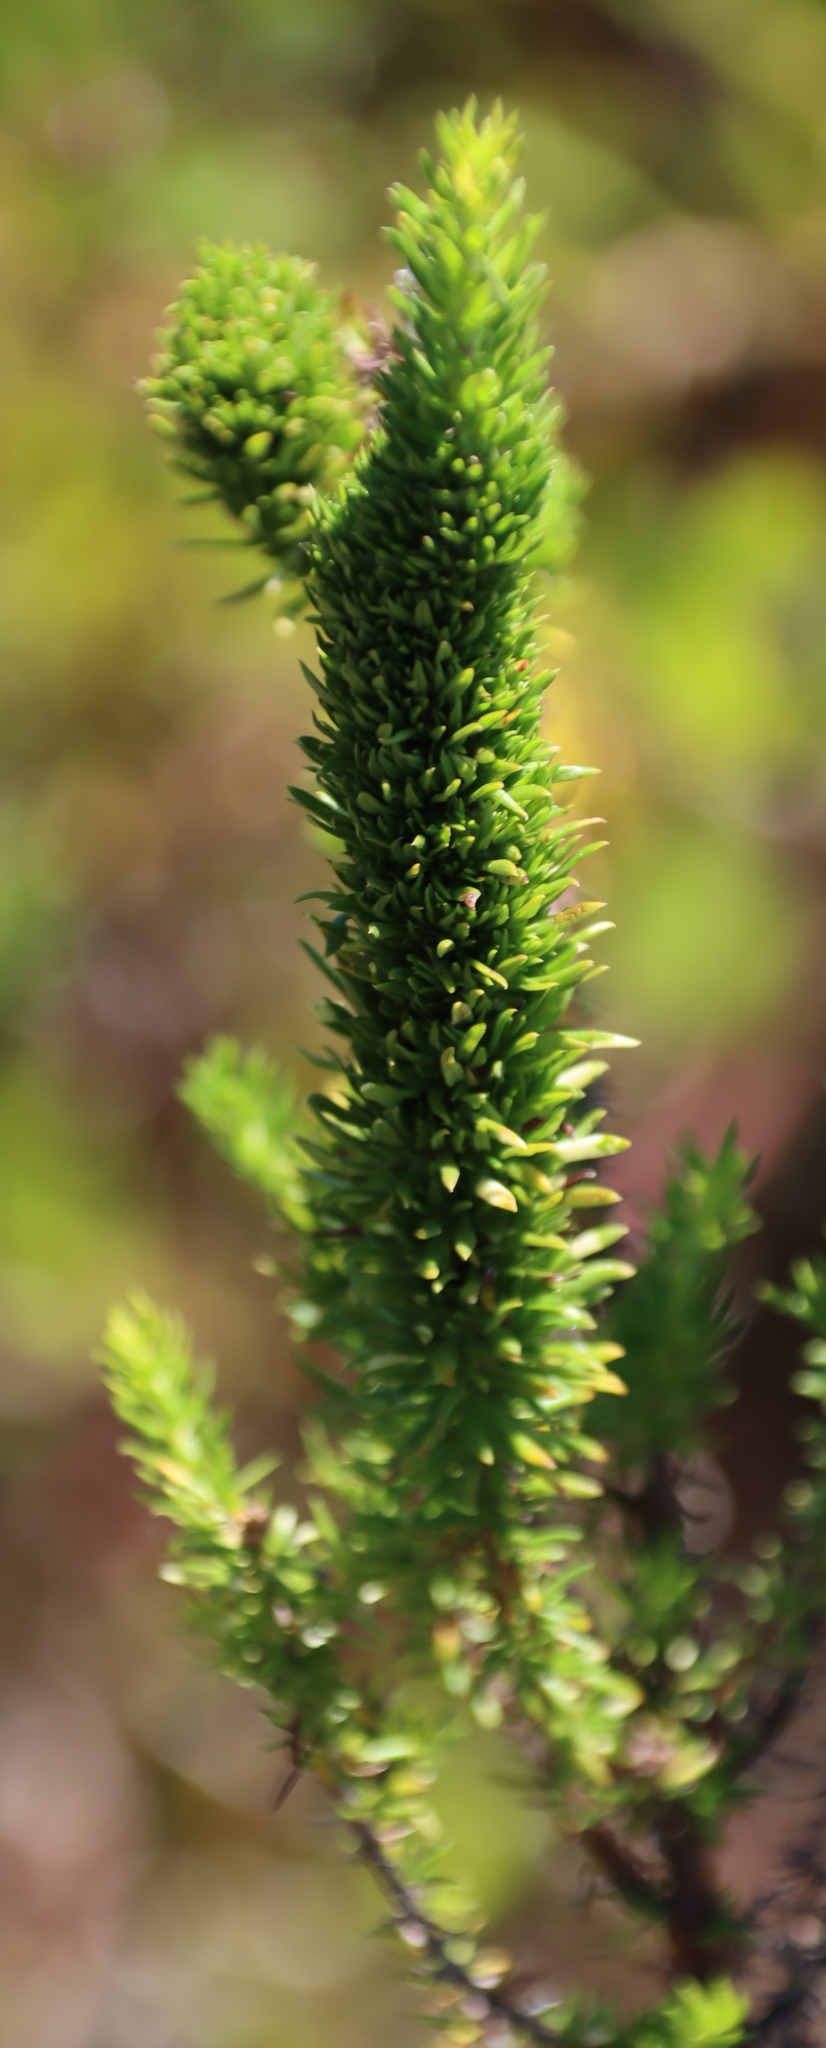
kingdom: Plantae
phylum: Tracheophyta
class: Magnoliopsida
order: Gentianales
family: Rubiaceae
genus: Anthospermum
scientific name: Anthospermum aethiopicum
